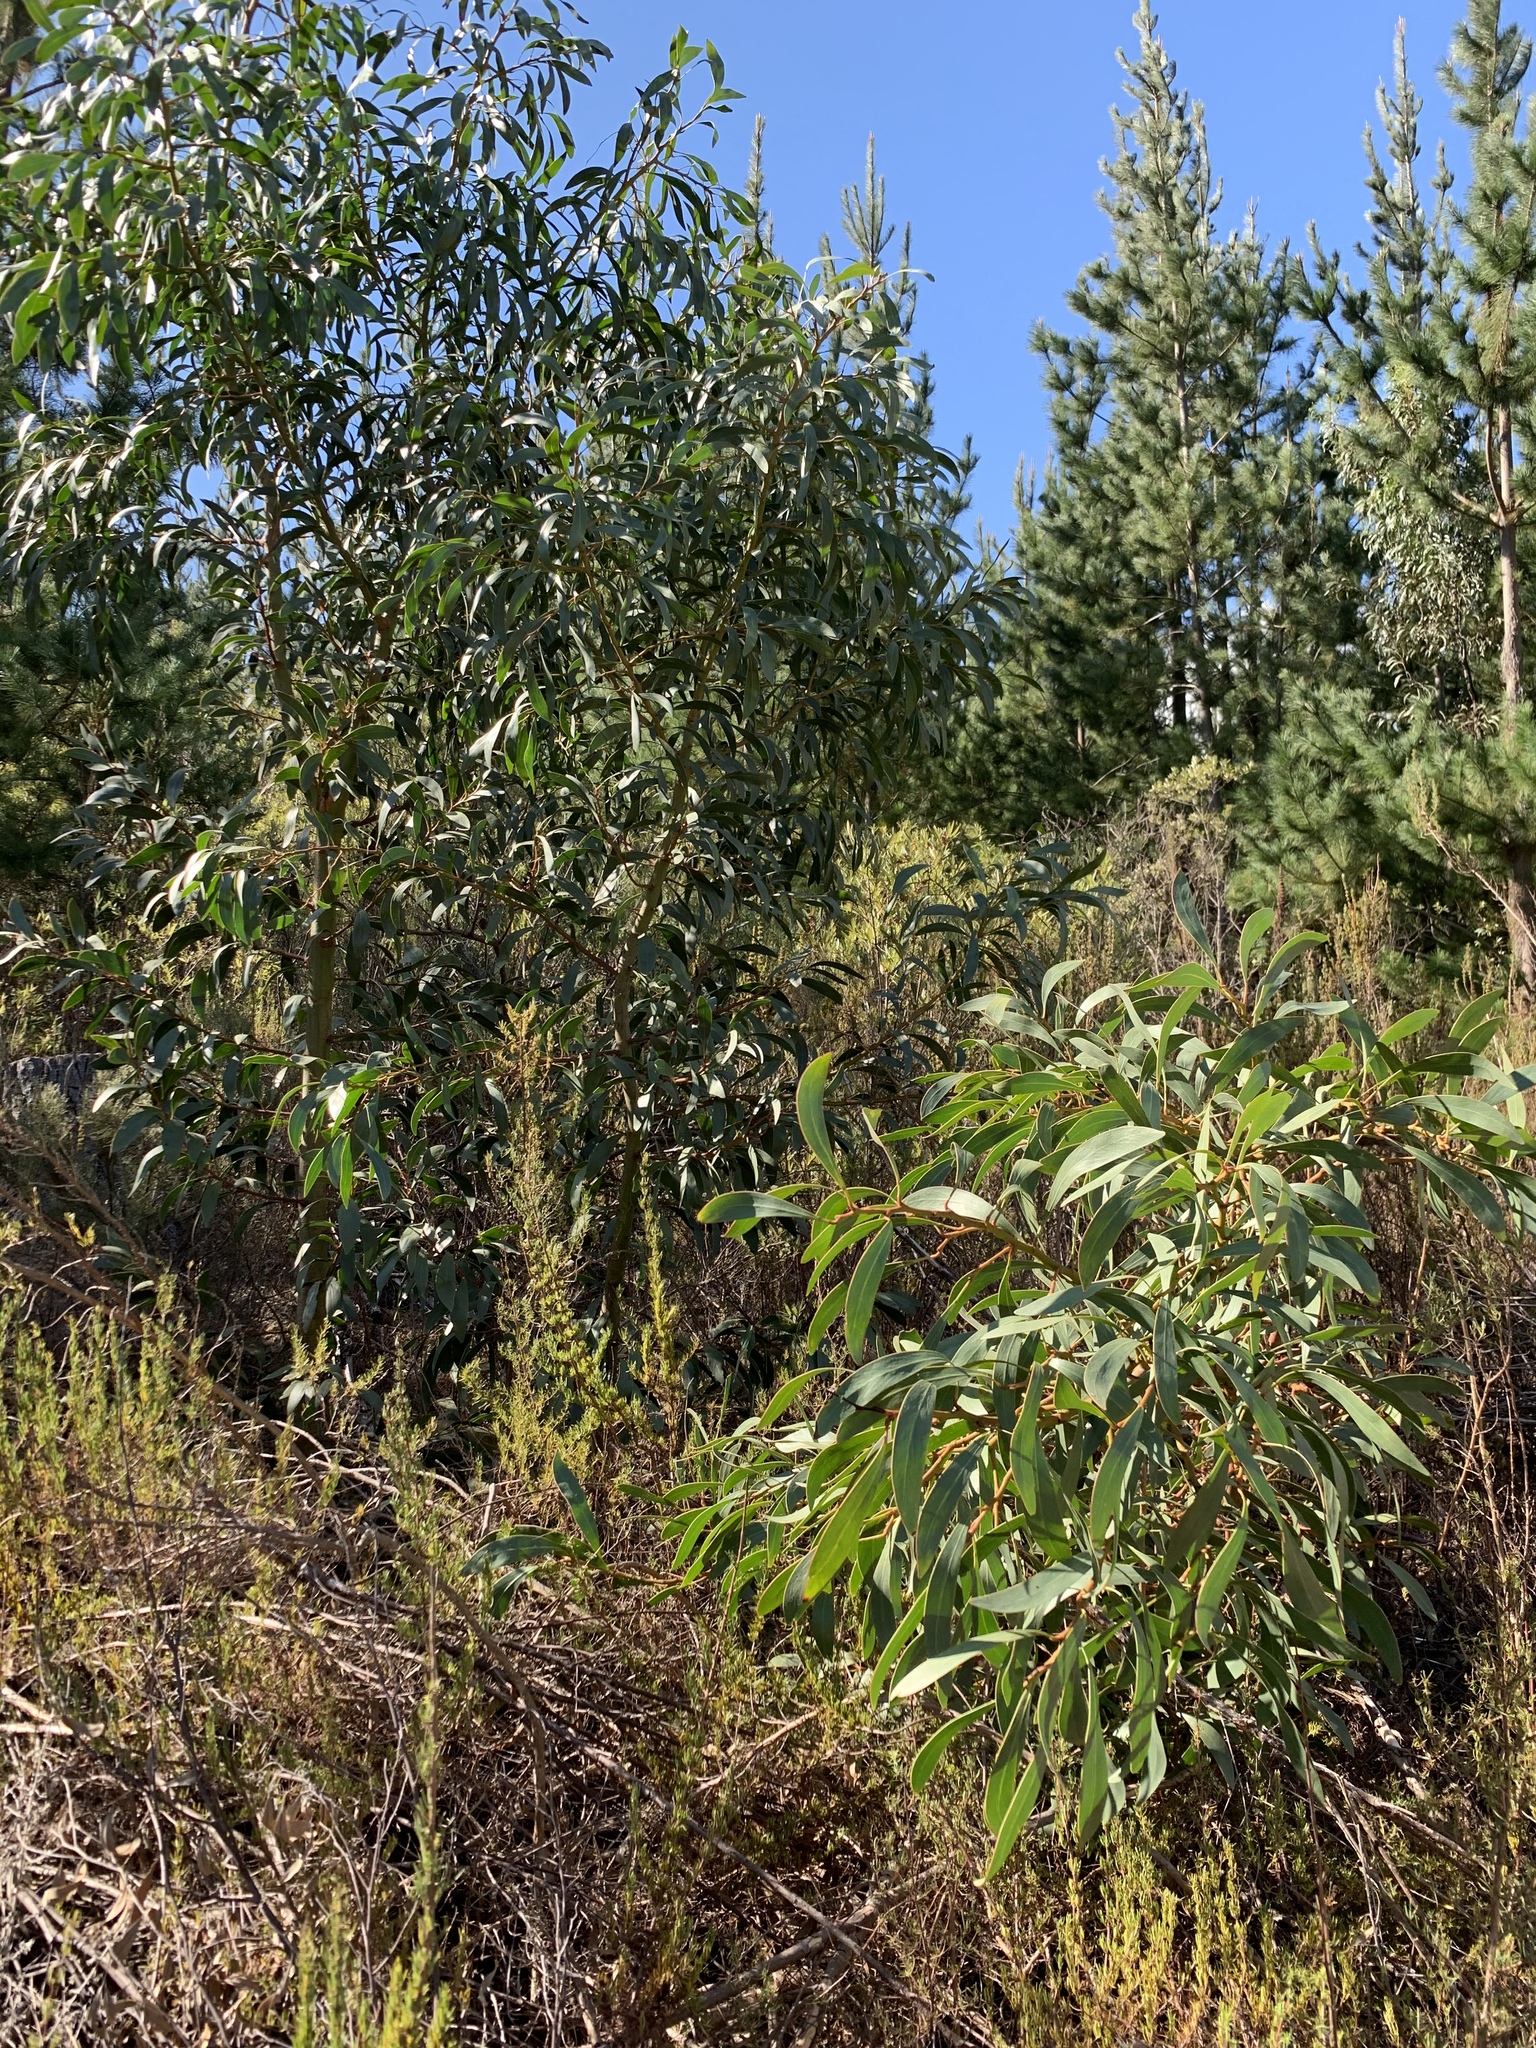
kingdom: Plantae
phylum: Tracheophyta
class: Magnoliopsida
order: Fabales
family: Fabaceae
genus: Acacia
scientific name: Acacia pycnantha
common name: Golden wattle
